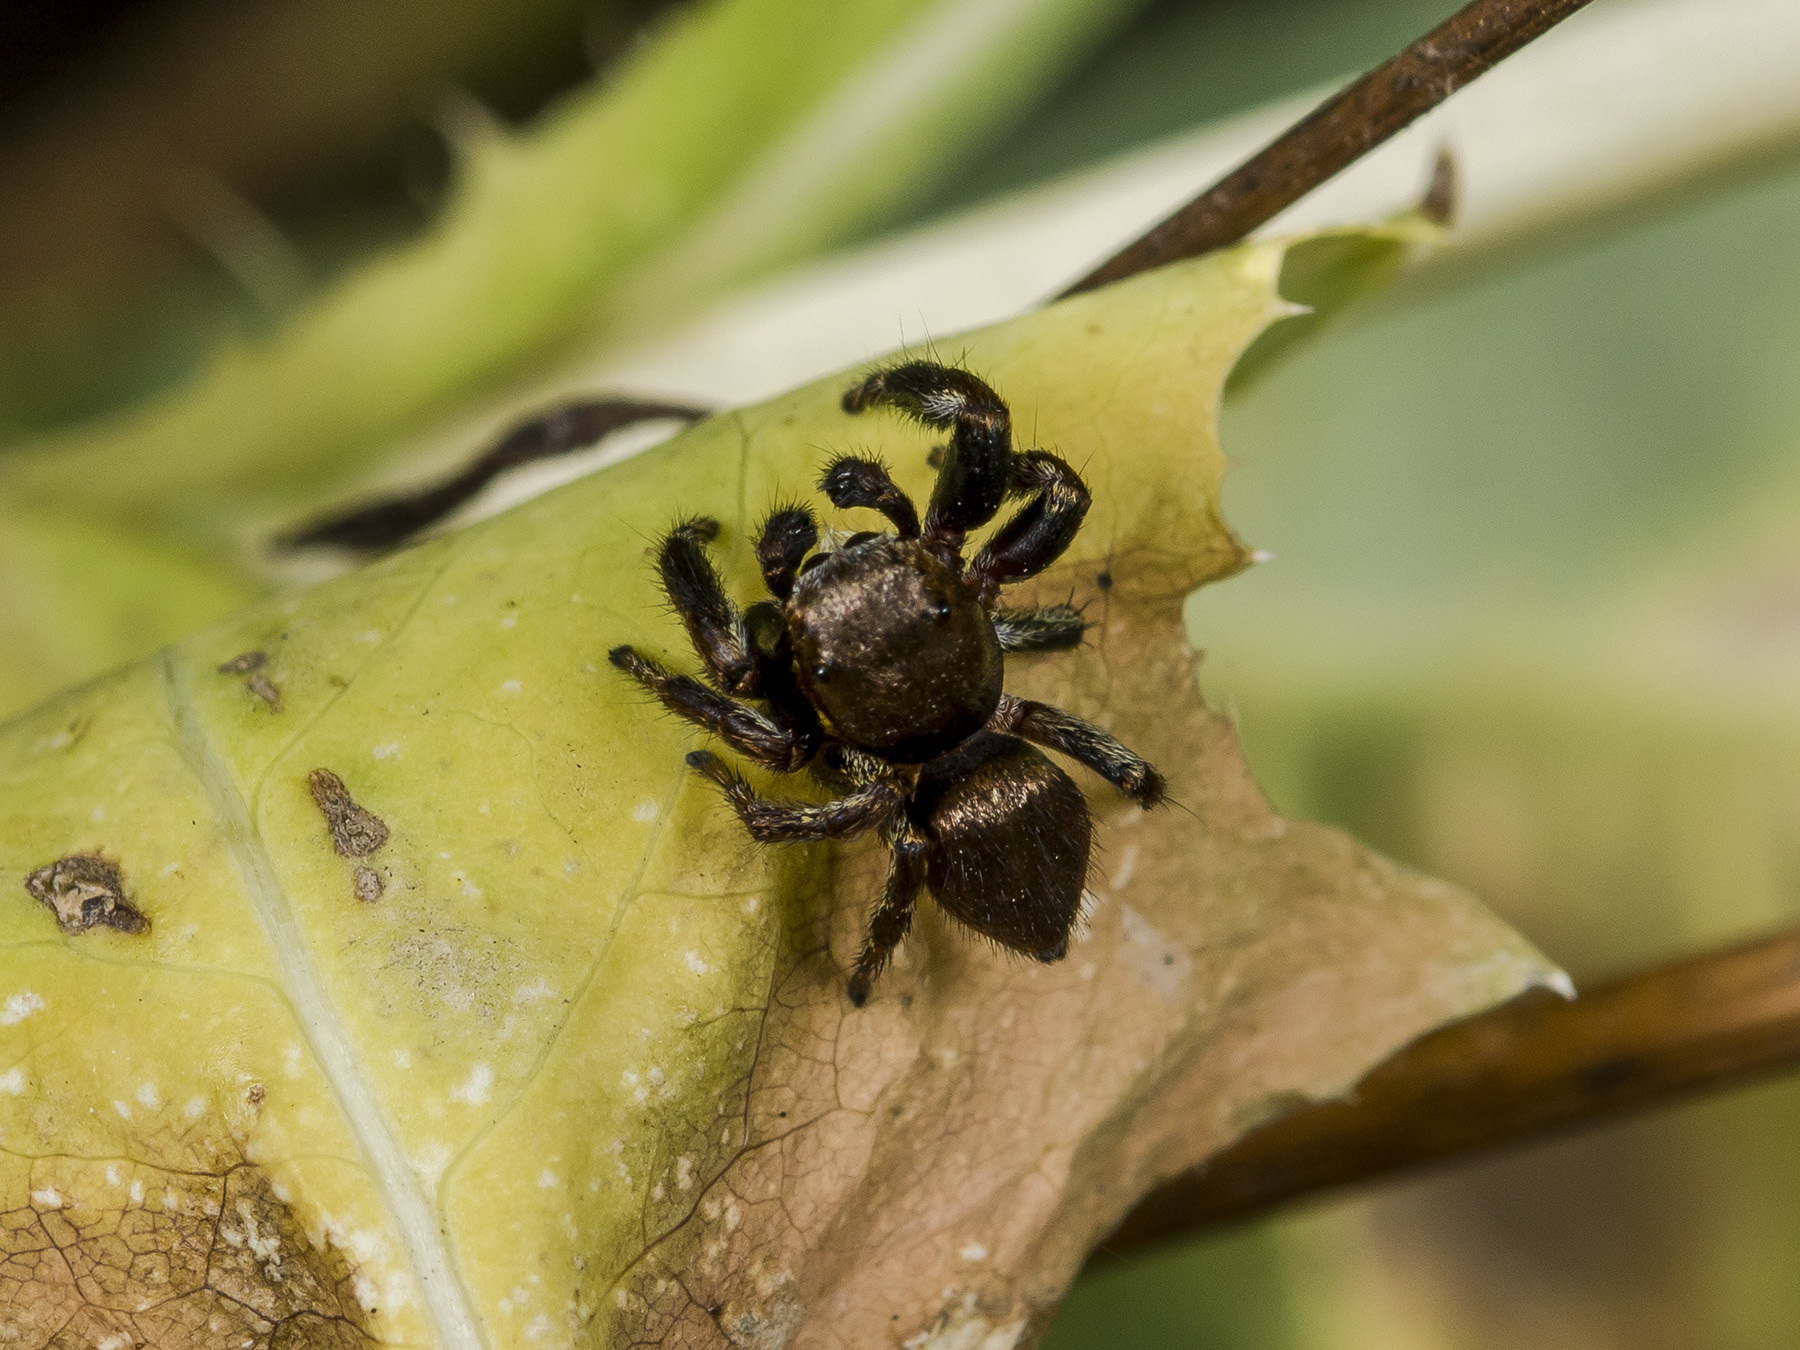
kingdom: Animalia
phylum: Arthropoda
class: Arachnida
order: Araneae
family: Salticidae
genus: Evarcha
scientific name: Evarcha arcuata
